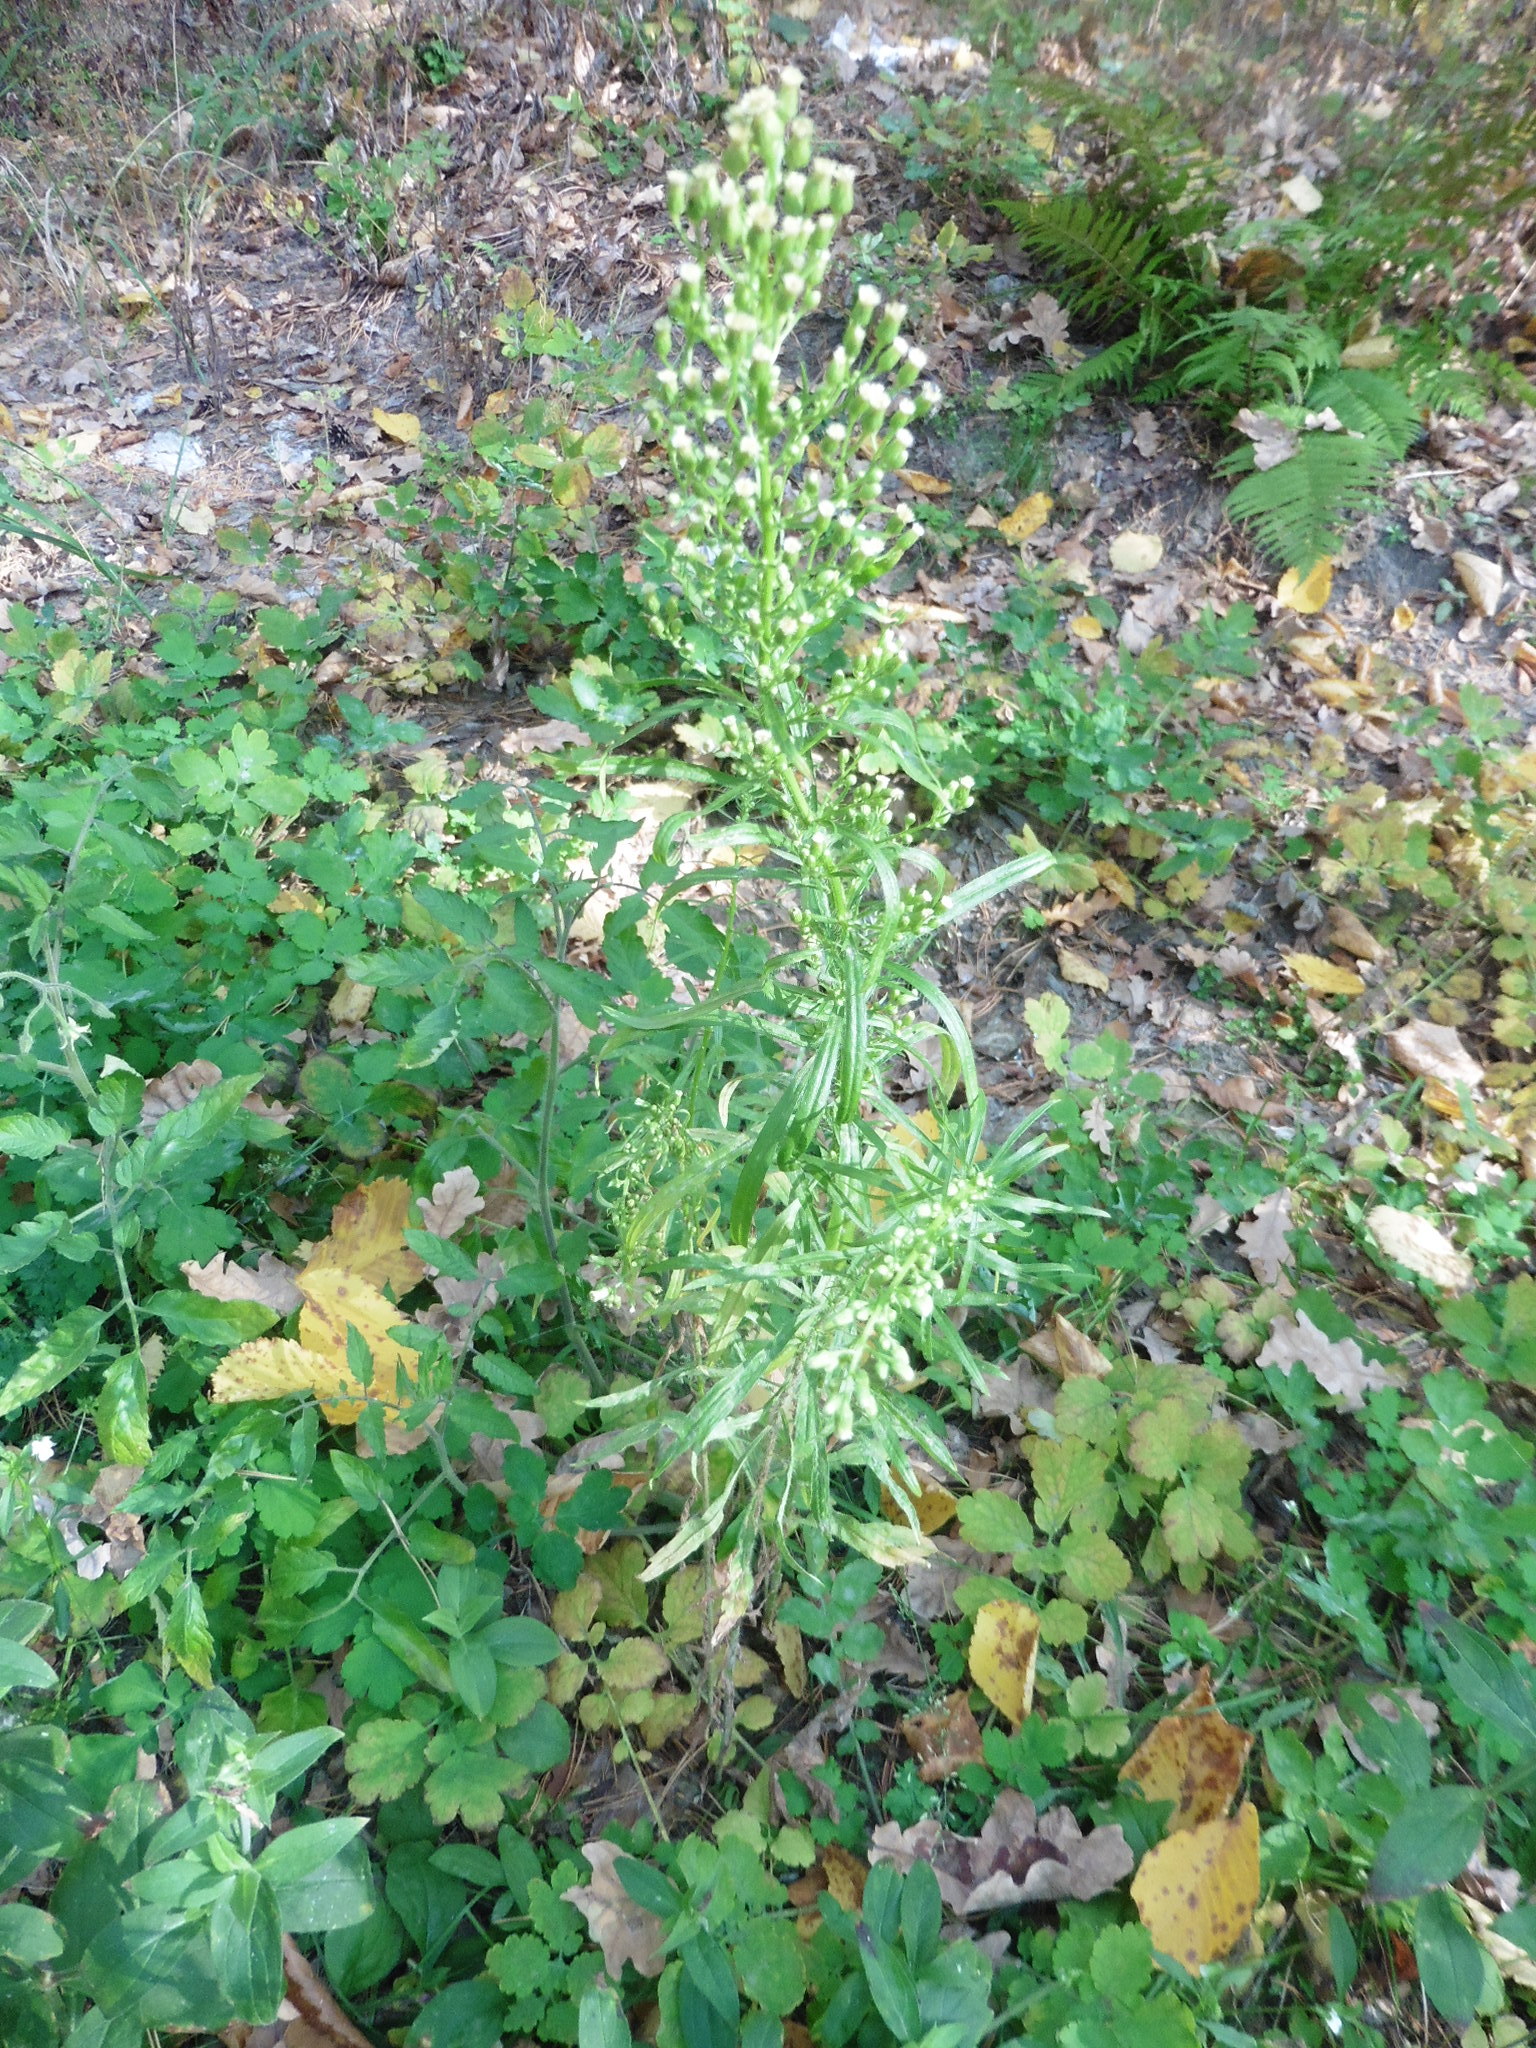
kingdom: Plantae
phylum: Tracheophyta
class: Magnoliopsida
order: Asterales
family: Asteraceae
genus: Erigeron
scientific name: Erigeron canadensis
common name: Canadian fleabane
